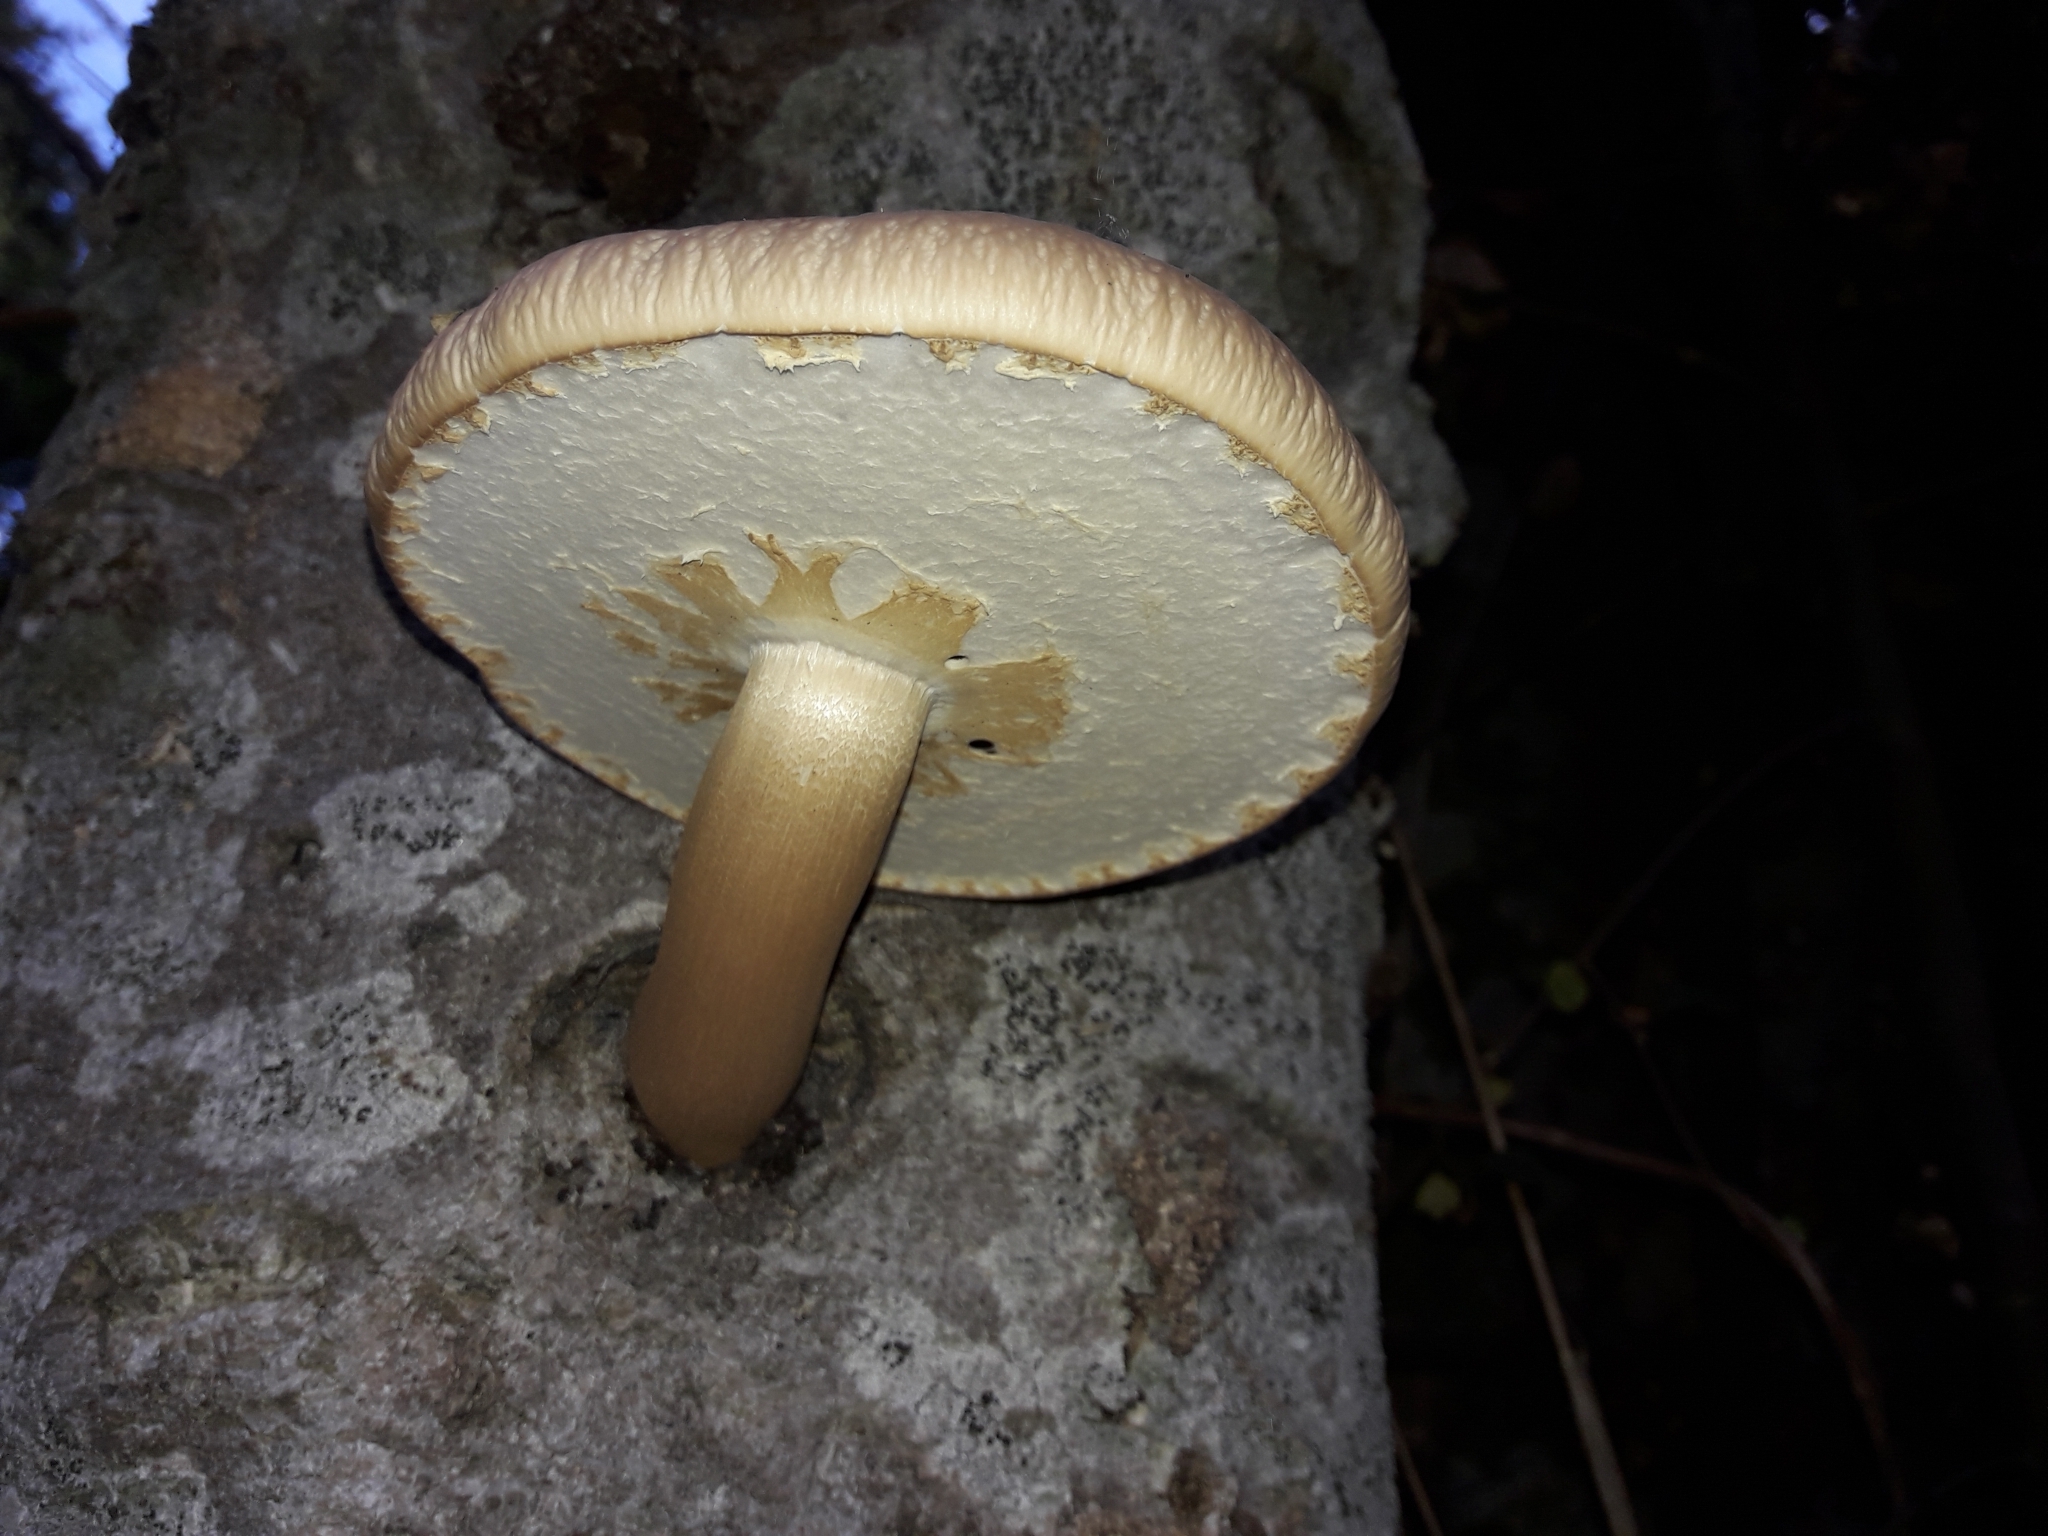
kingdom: Fungi
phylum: Basidiomycota
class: Agaricomycetes
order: Agaricales
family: Tubariaceae
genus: Cyclocybe
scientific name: Cyclocybe parasitica
